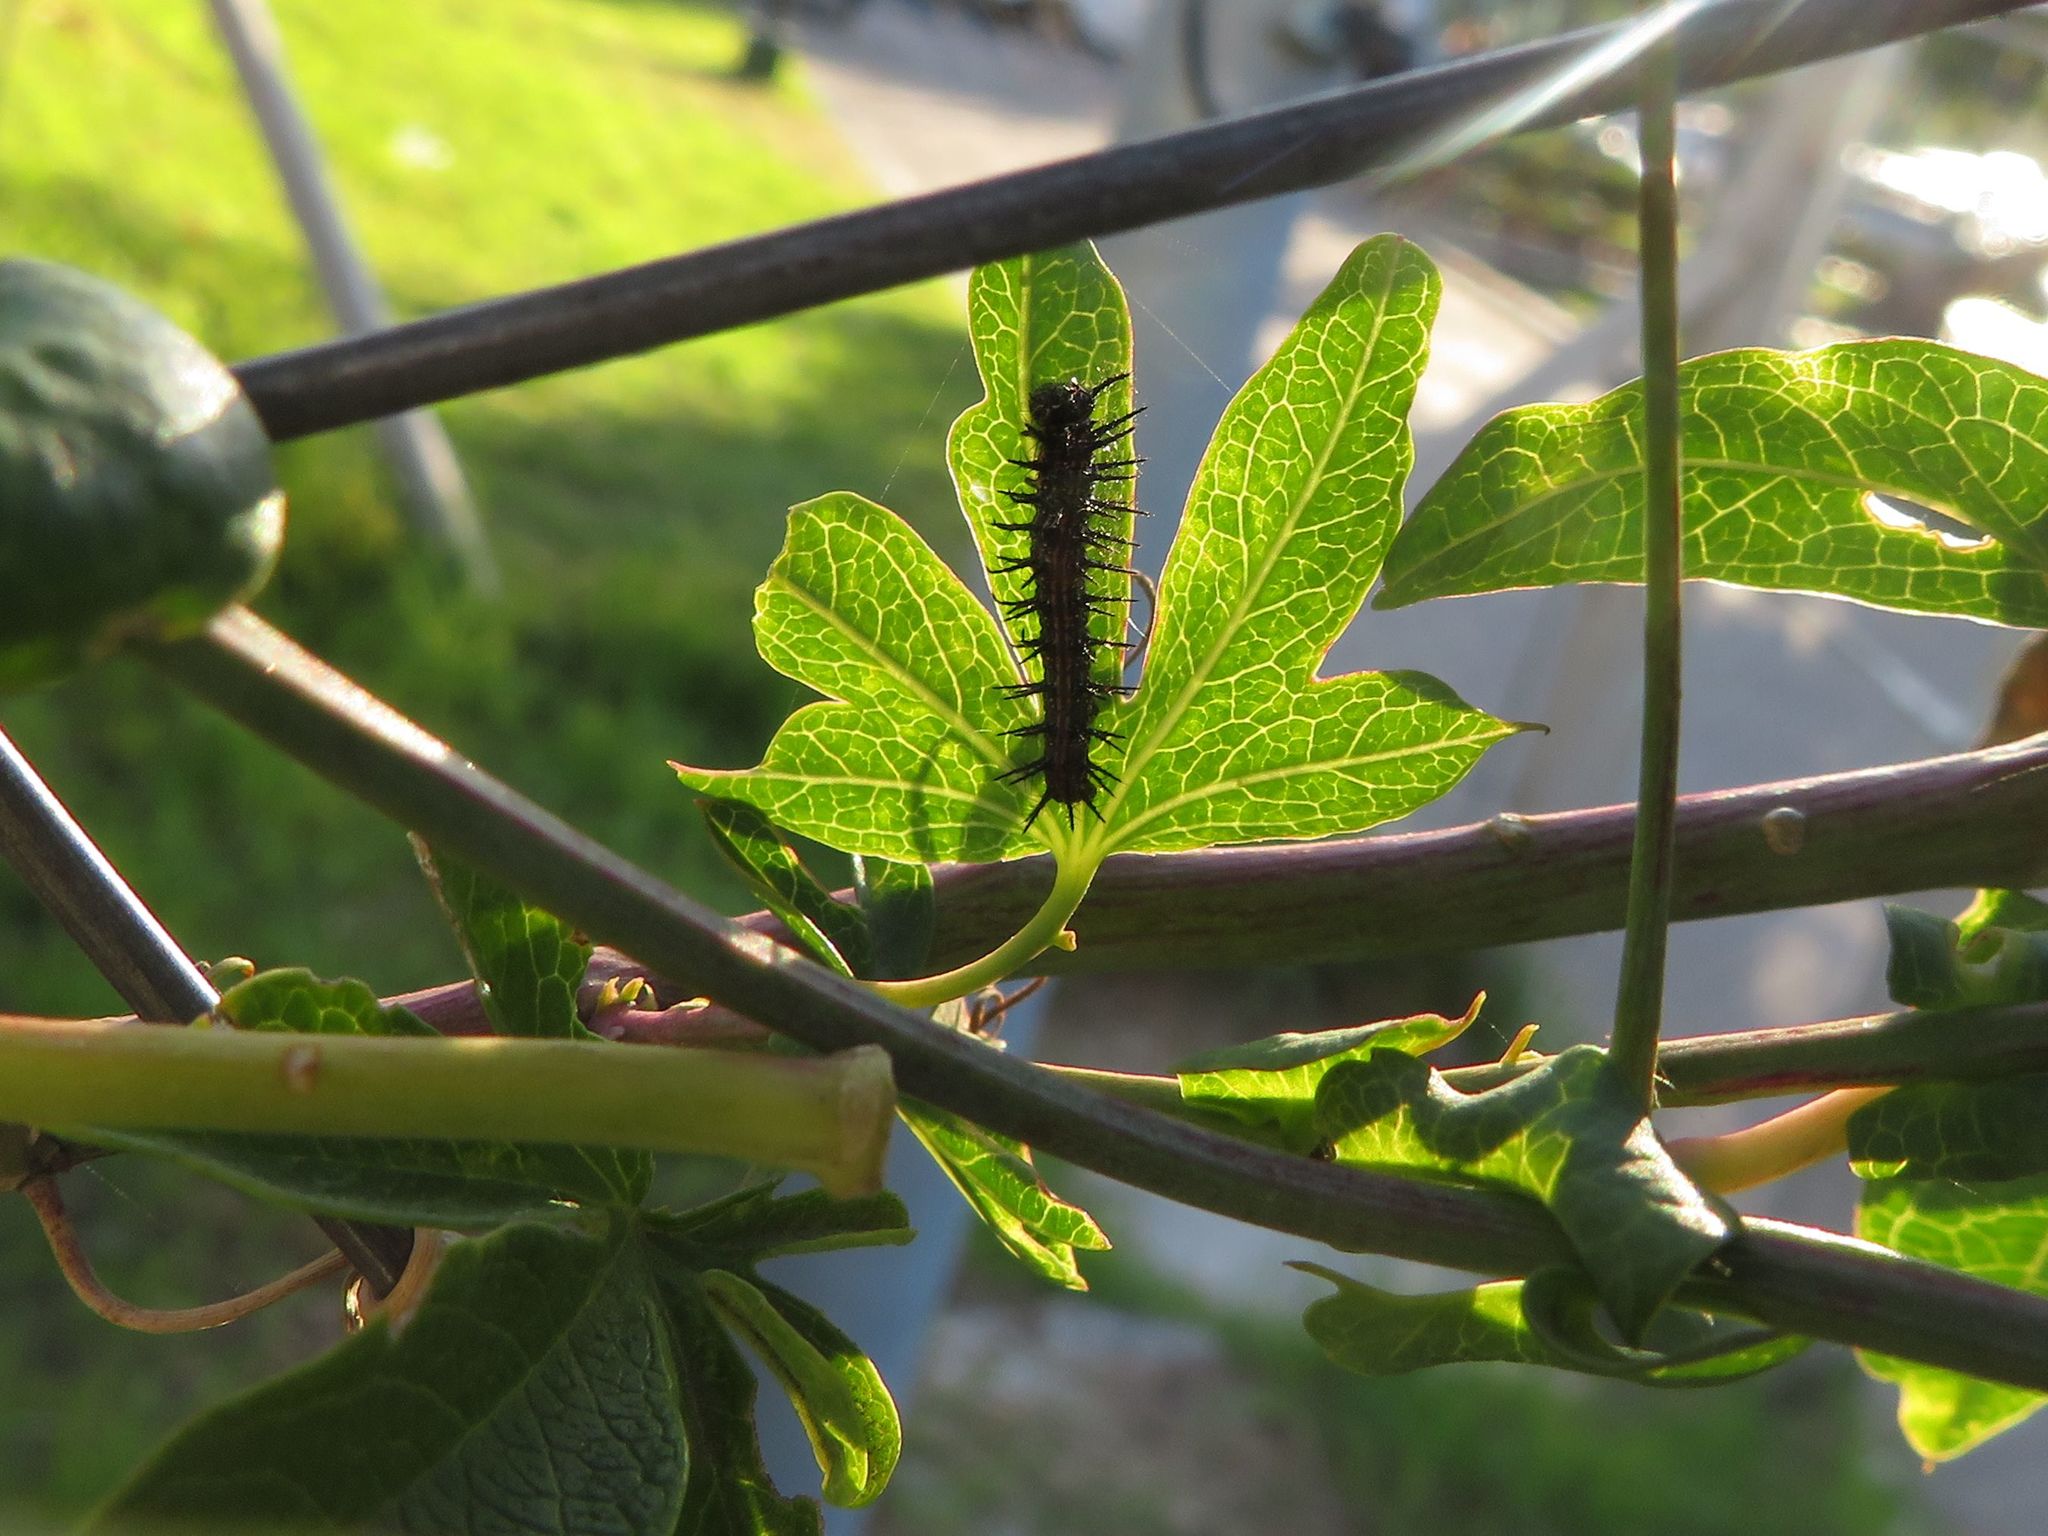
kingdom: Animalia
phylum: Arthropoda
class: Insecta
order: Lepidoptera
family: Nymphalidae
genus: Dione
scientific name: Dione vanillae
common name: Gulf fritillary
